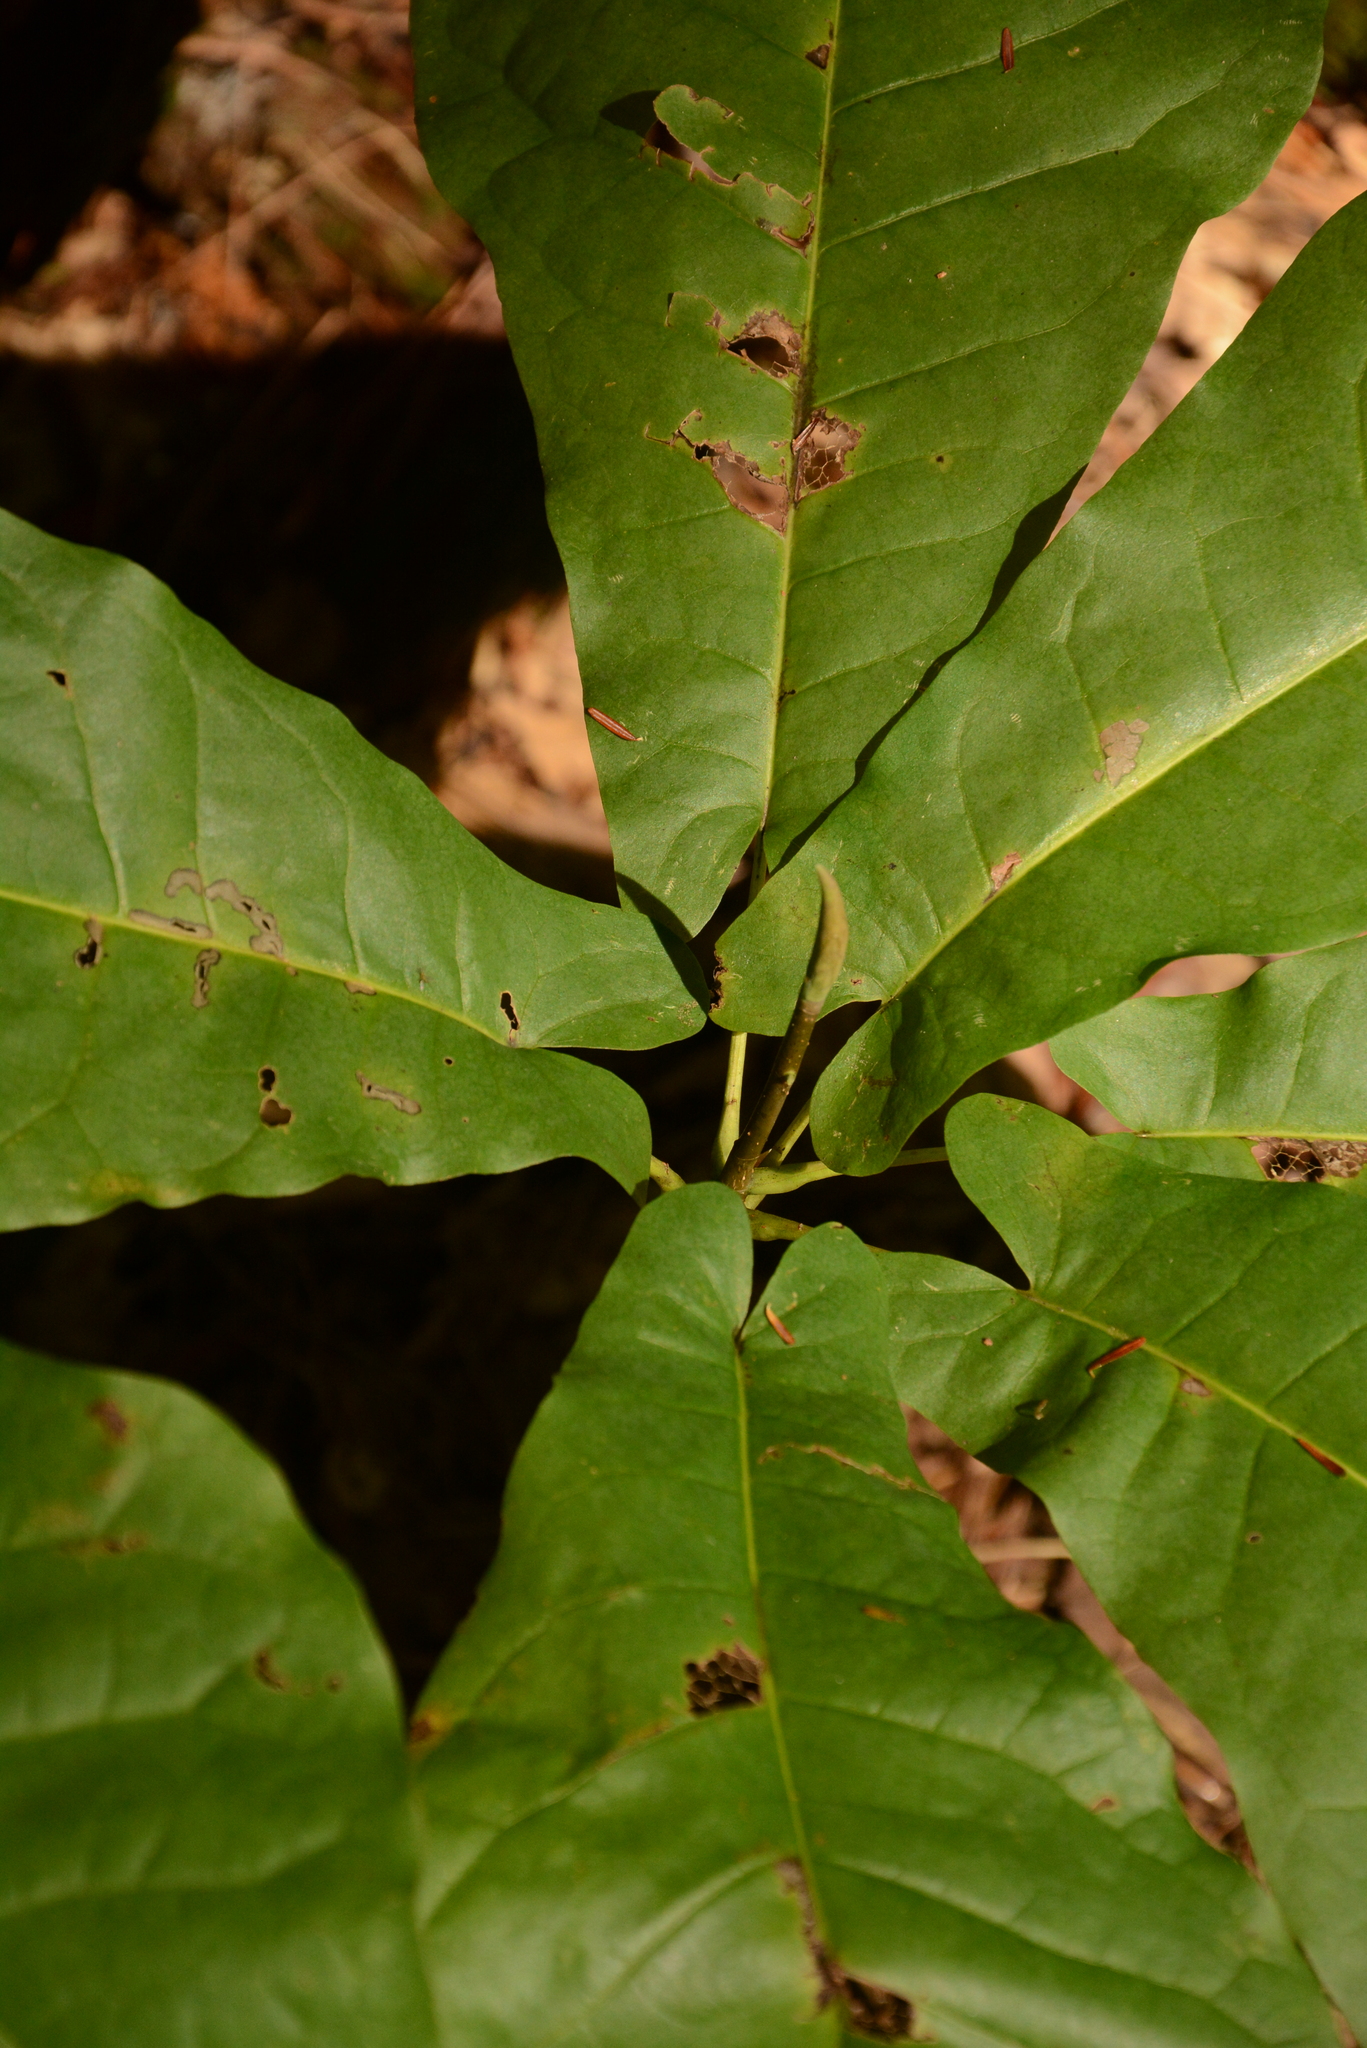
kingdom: Plantae
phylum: Tracheophyta
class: Magnoliopsida
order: Magnoliales
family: Magnoliaceae
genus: Magnolia
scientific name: Magnolia fraseri
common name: Fraser's magnolia
